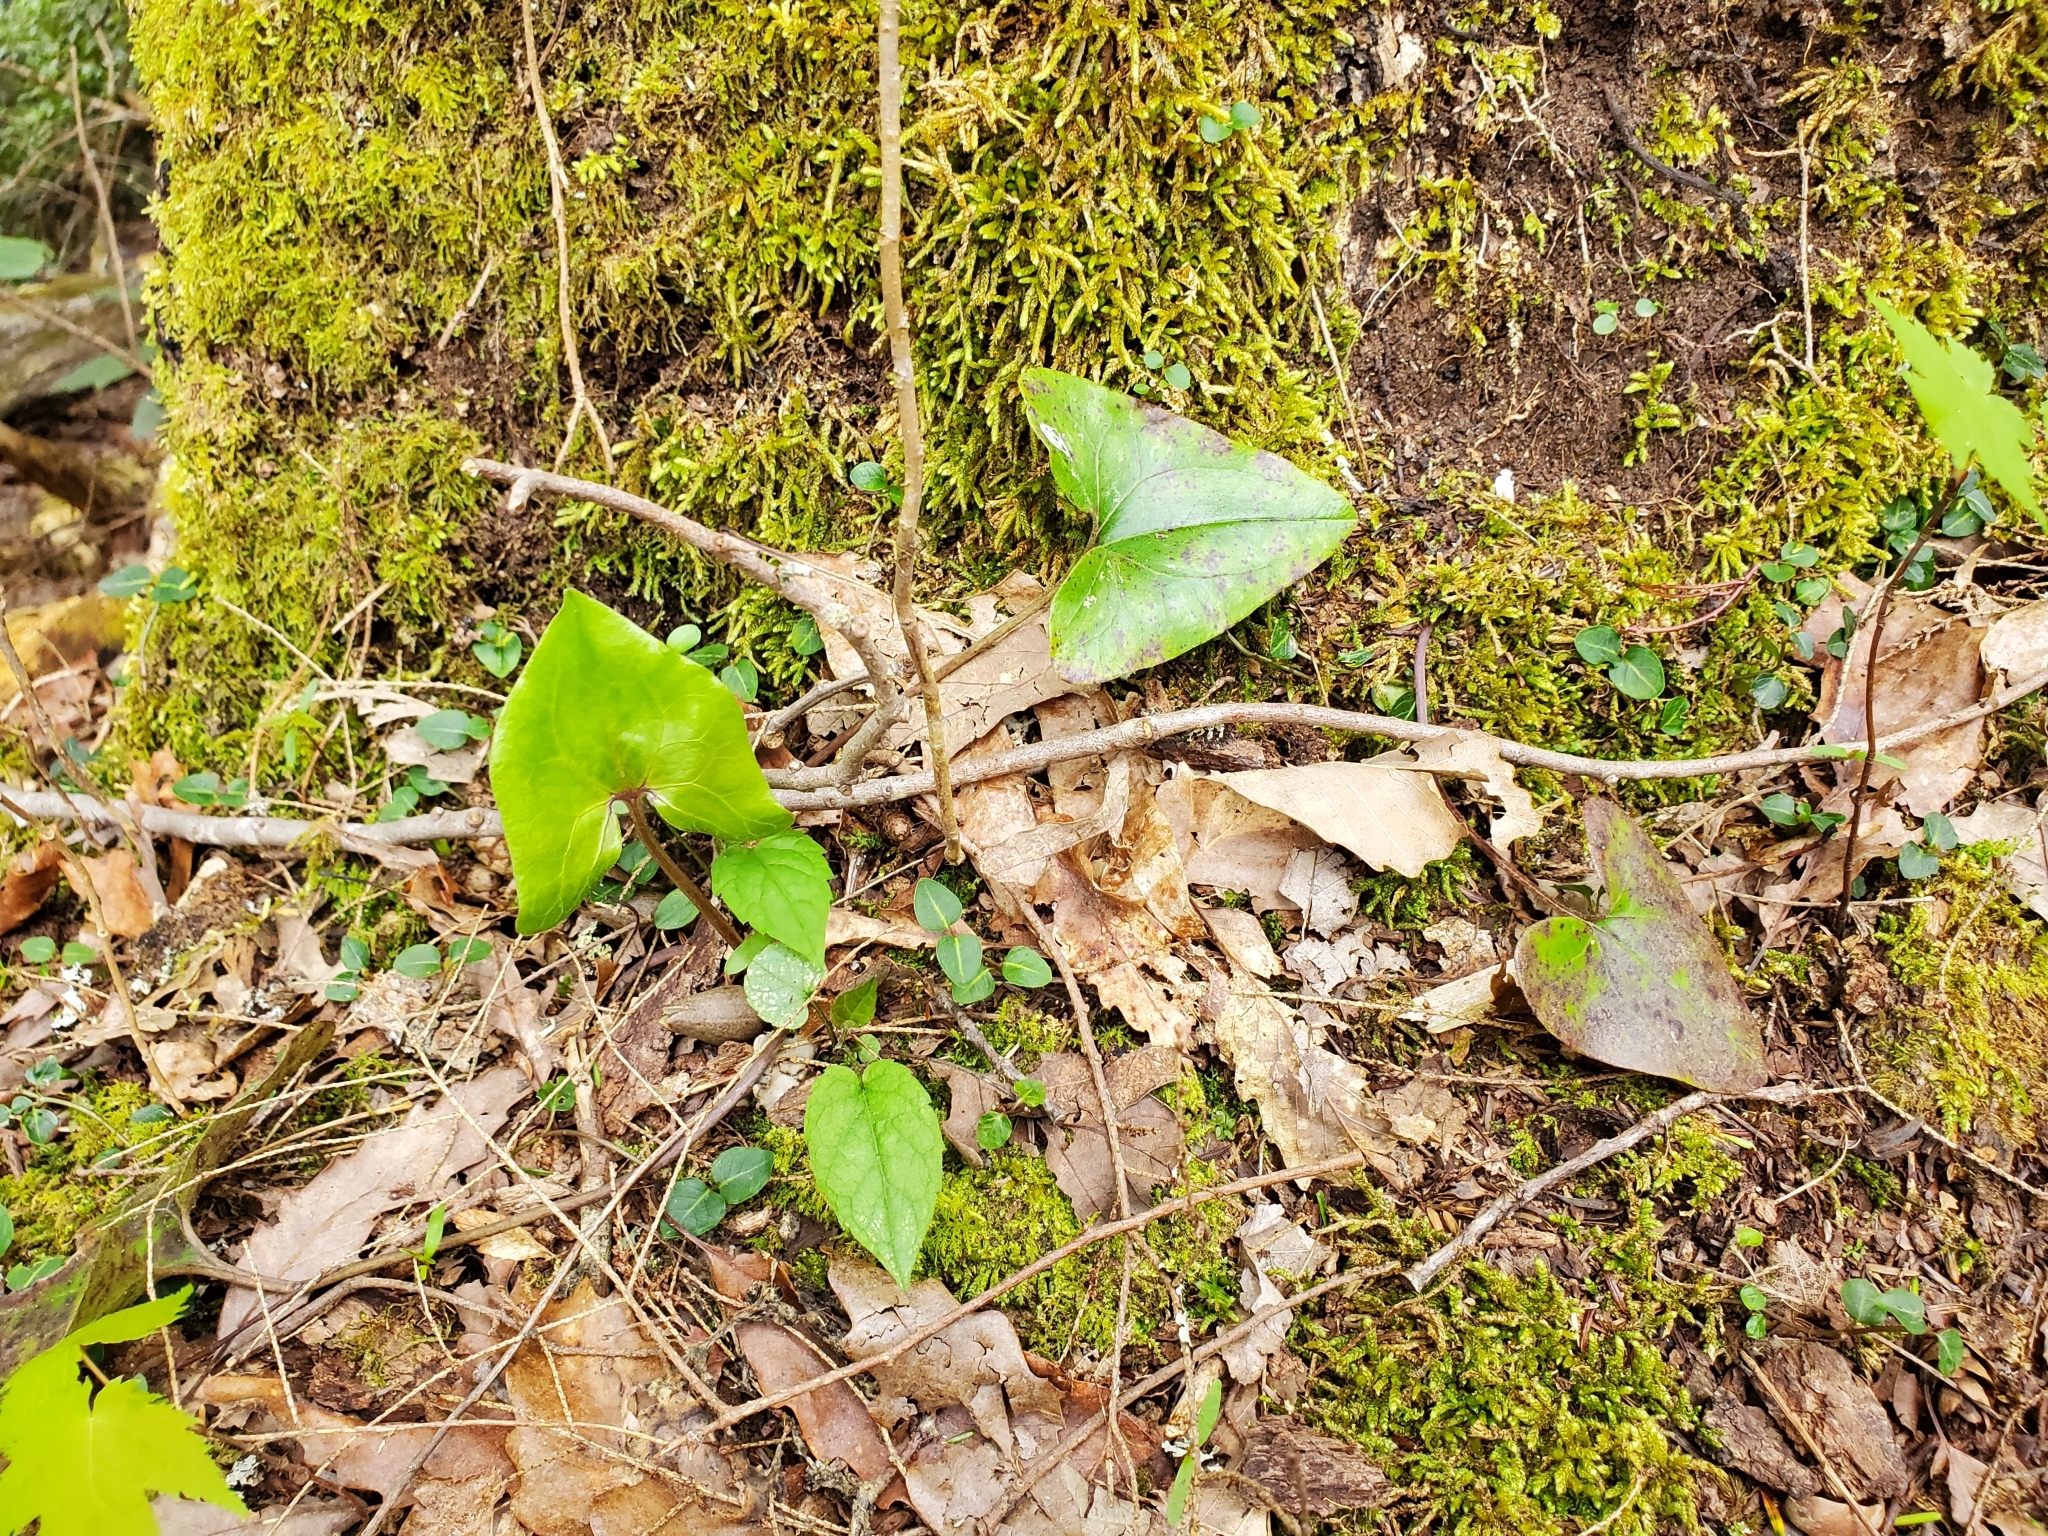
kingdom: Plantae
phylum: Tracheophyta
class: Magnoliopsida
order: Piperales
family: Aristolochiaceae
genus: Hexastylis
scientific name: Hexastylis arifolia
